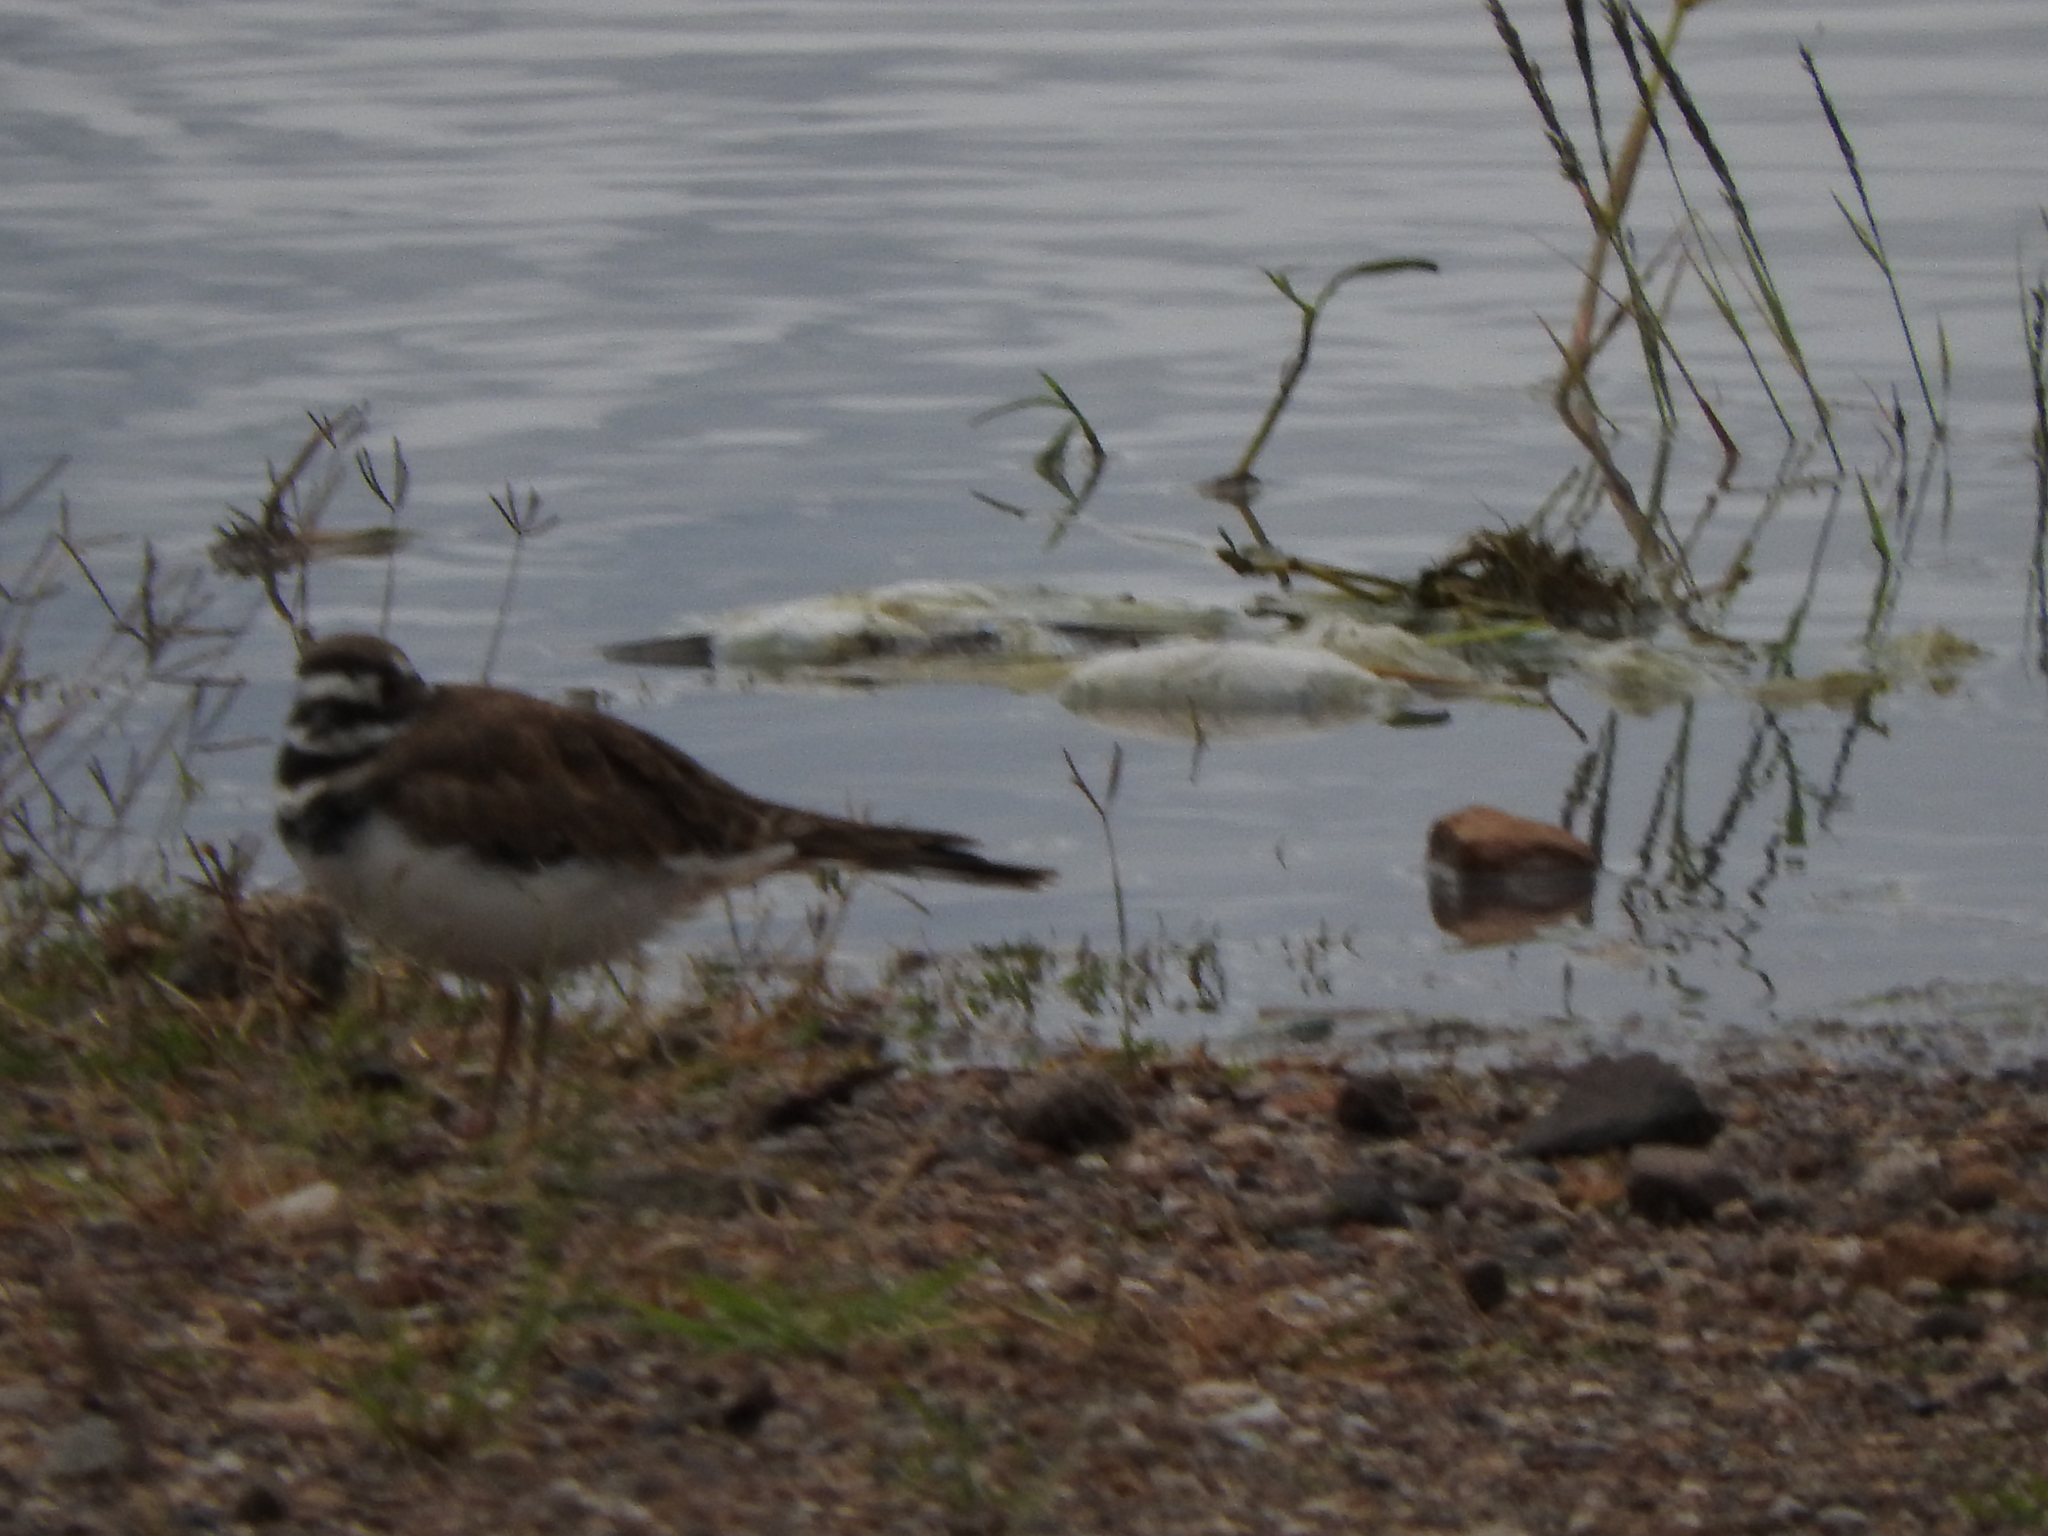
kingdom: Animalia
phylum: Chordata
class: Aves
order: Charadriiformes
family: Charadriidae
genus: Charadrius
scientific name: Charadrius vociferus
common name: Killdeer
